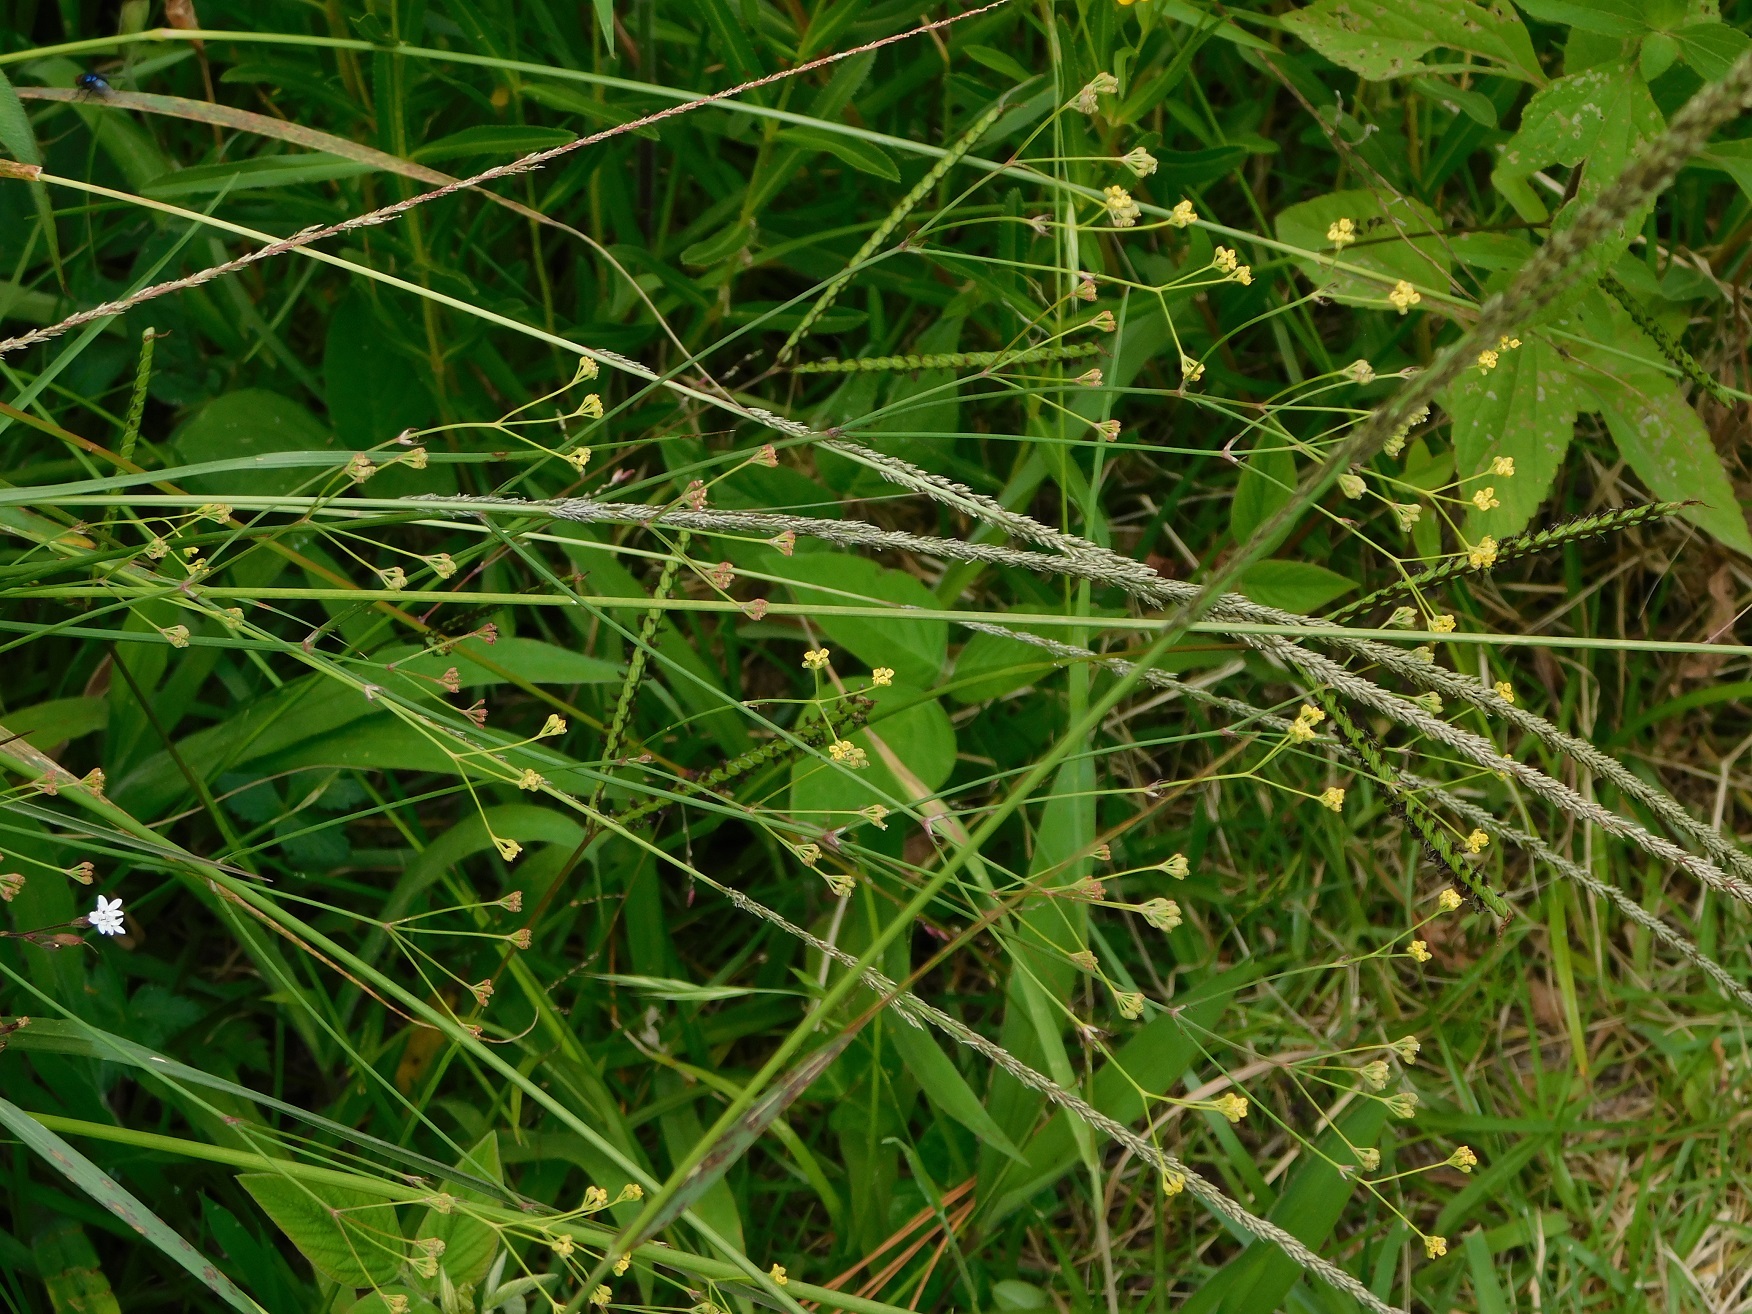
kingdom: Plantae
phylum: Tracheophyta
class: Magnoliopsida
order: Apiales
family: Apiaceae
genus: Donnellsmithia
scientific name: Donnellsmithia juncea
